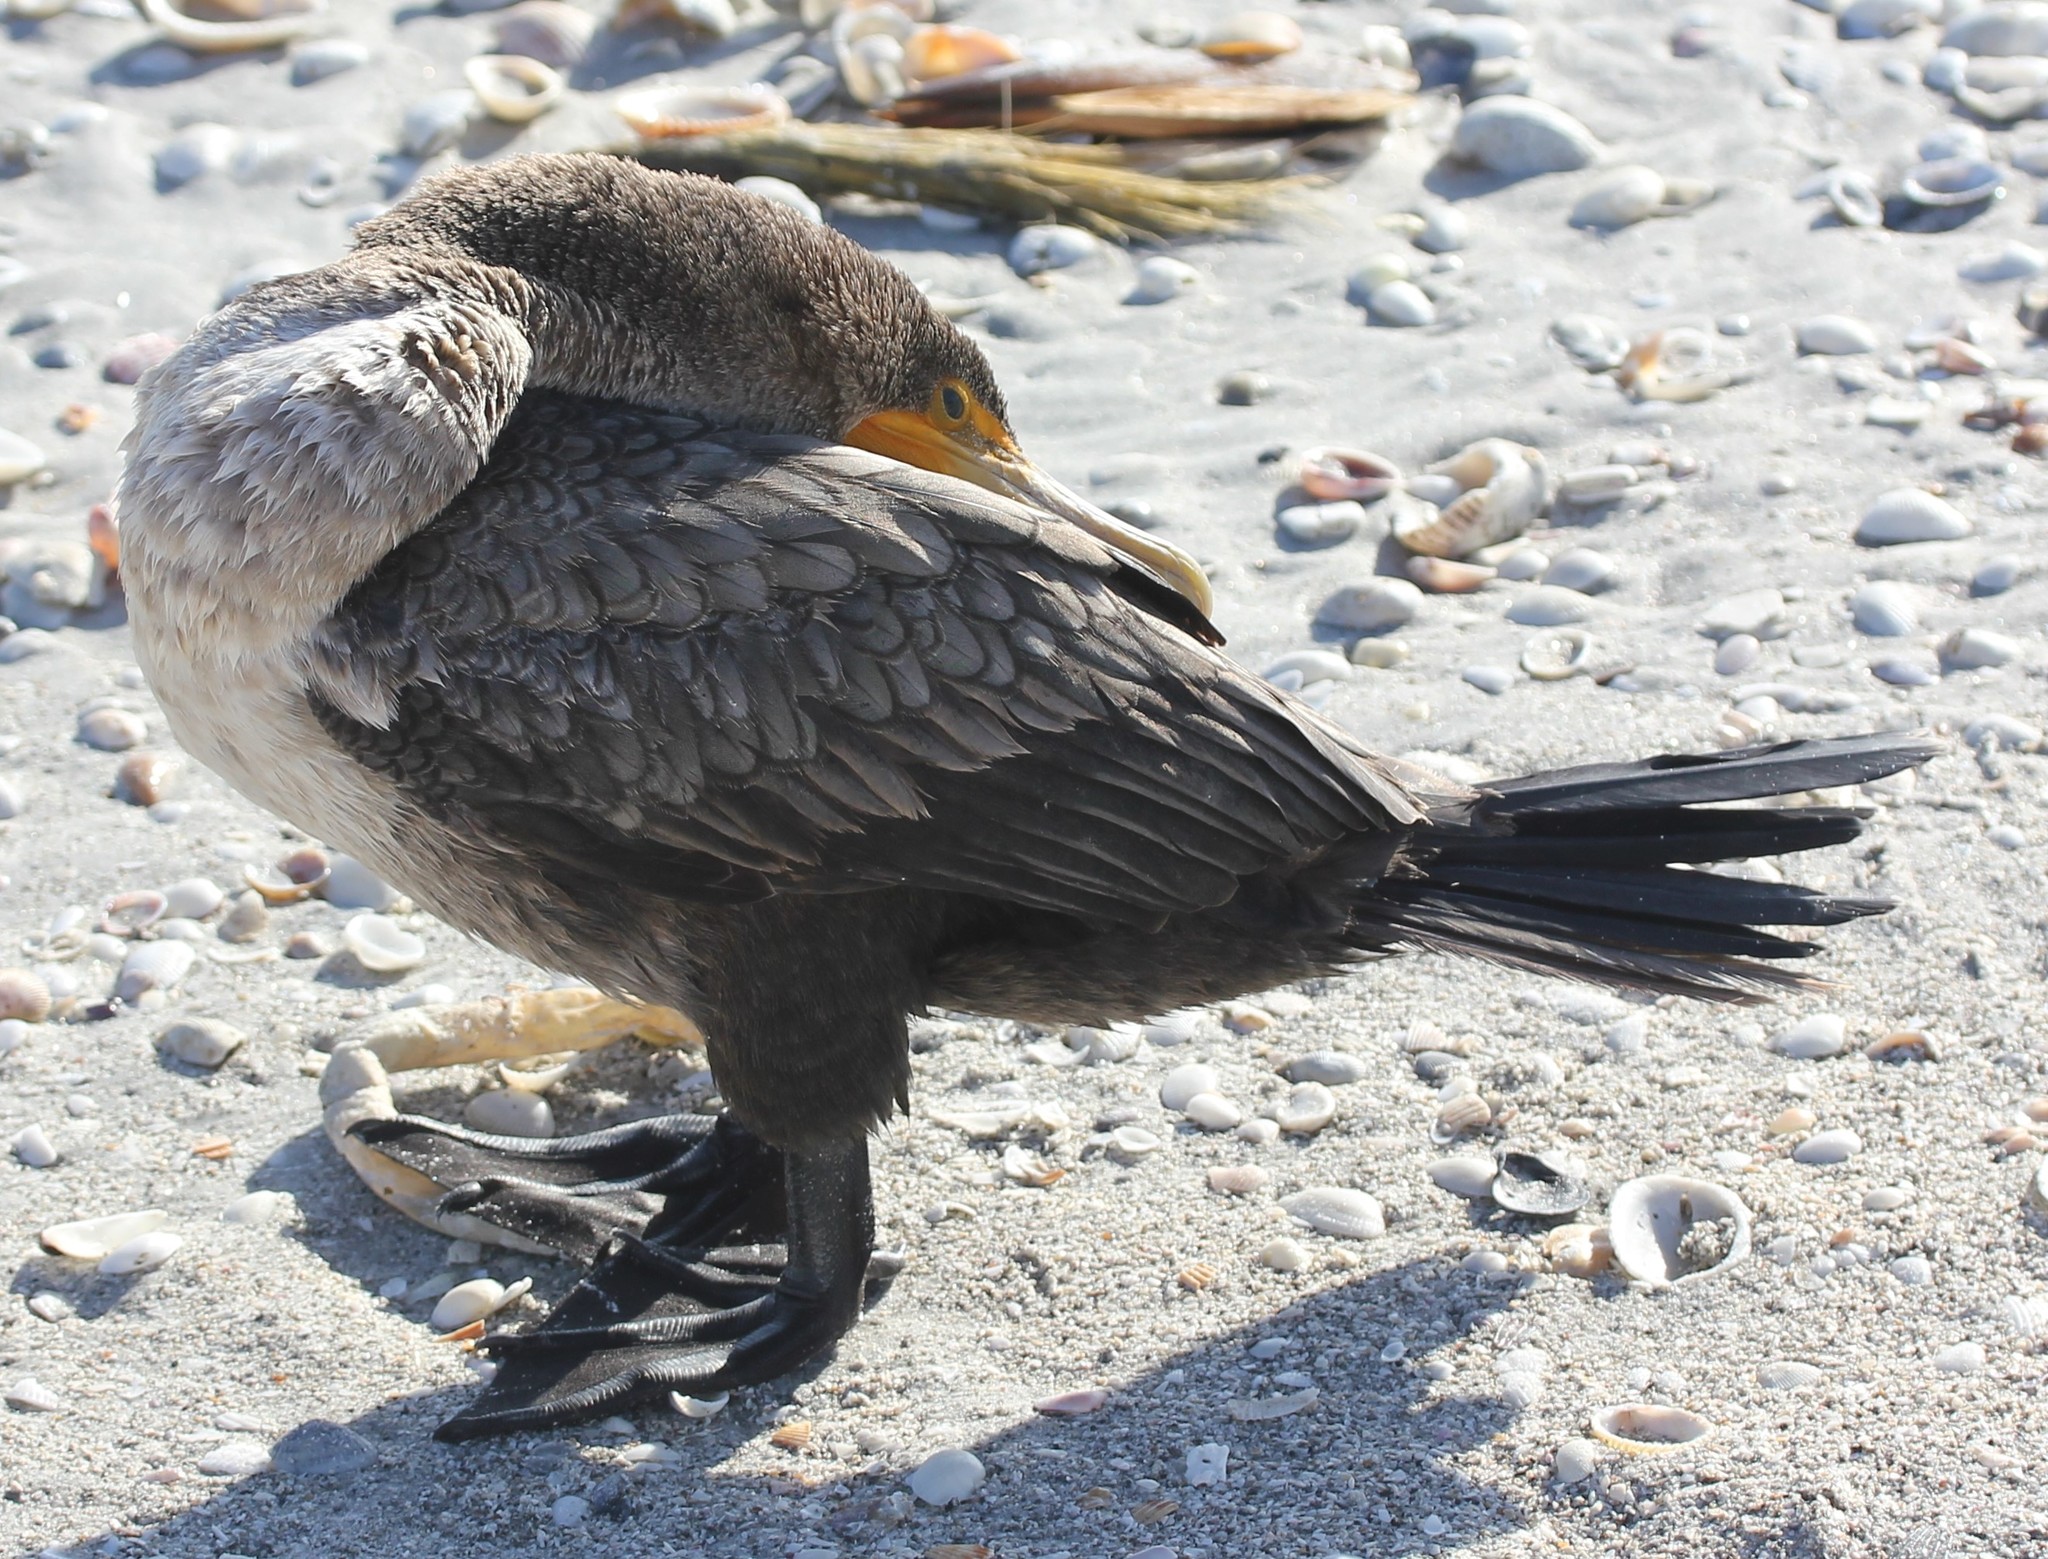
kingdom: Animalia
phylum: Chordata
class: Aves
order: Suliformes
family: Phalacrocoracidae
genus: Phalacrocorax
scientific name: Phalacrocorax auritus
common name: Double-crested cormorant
